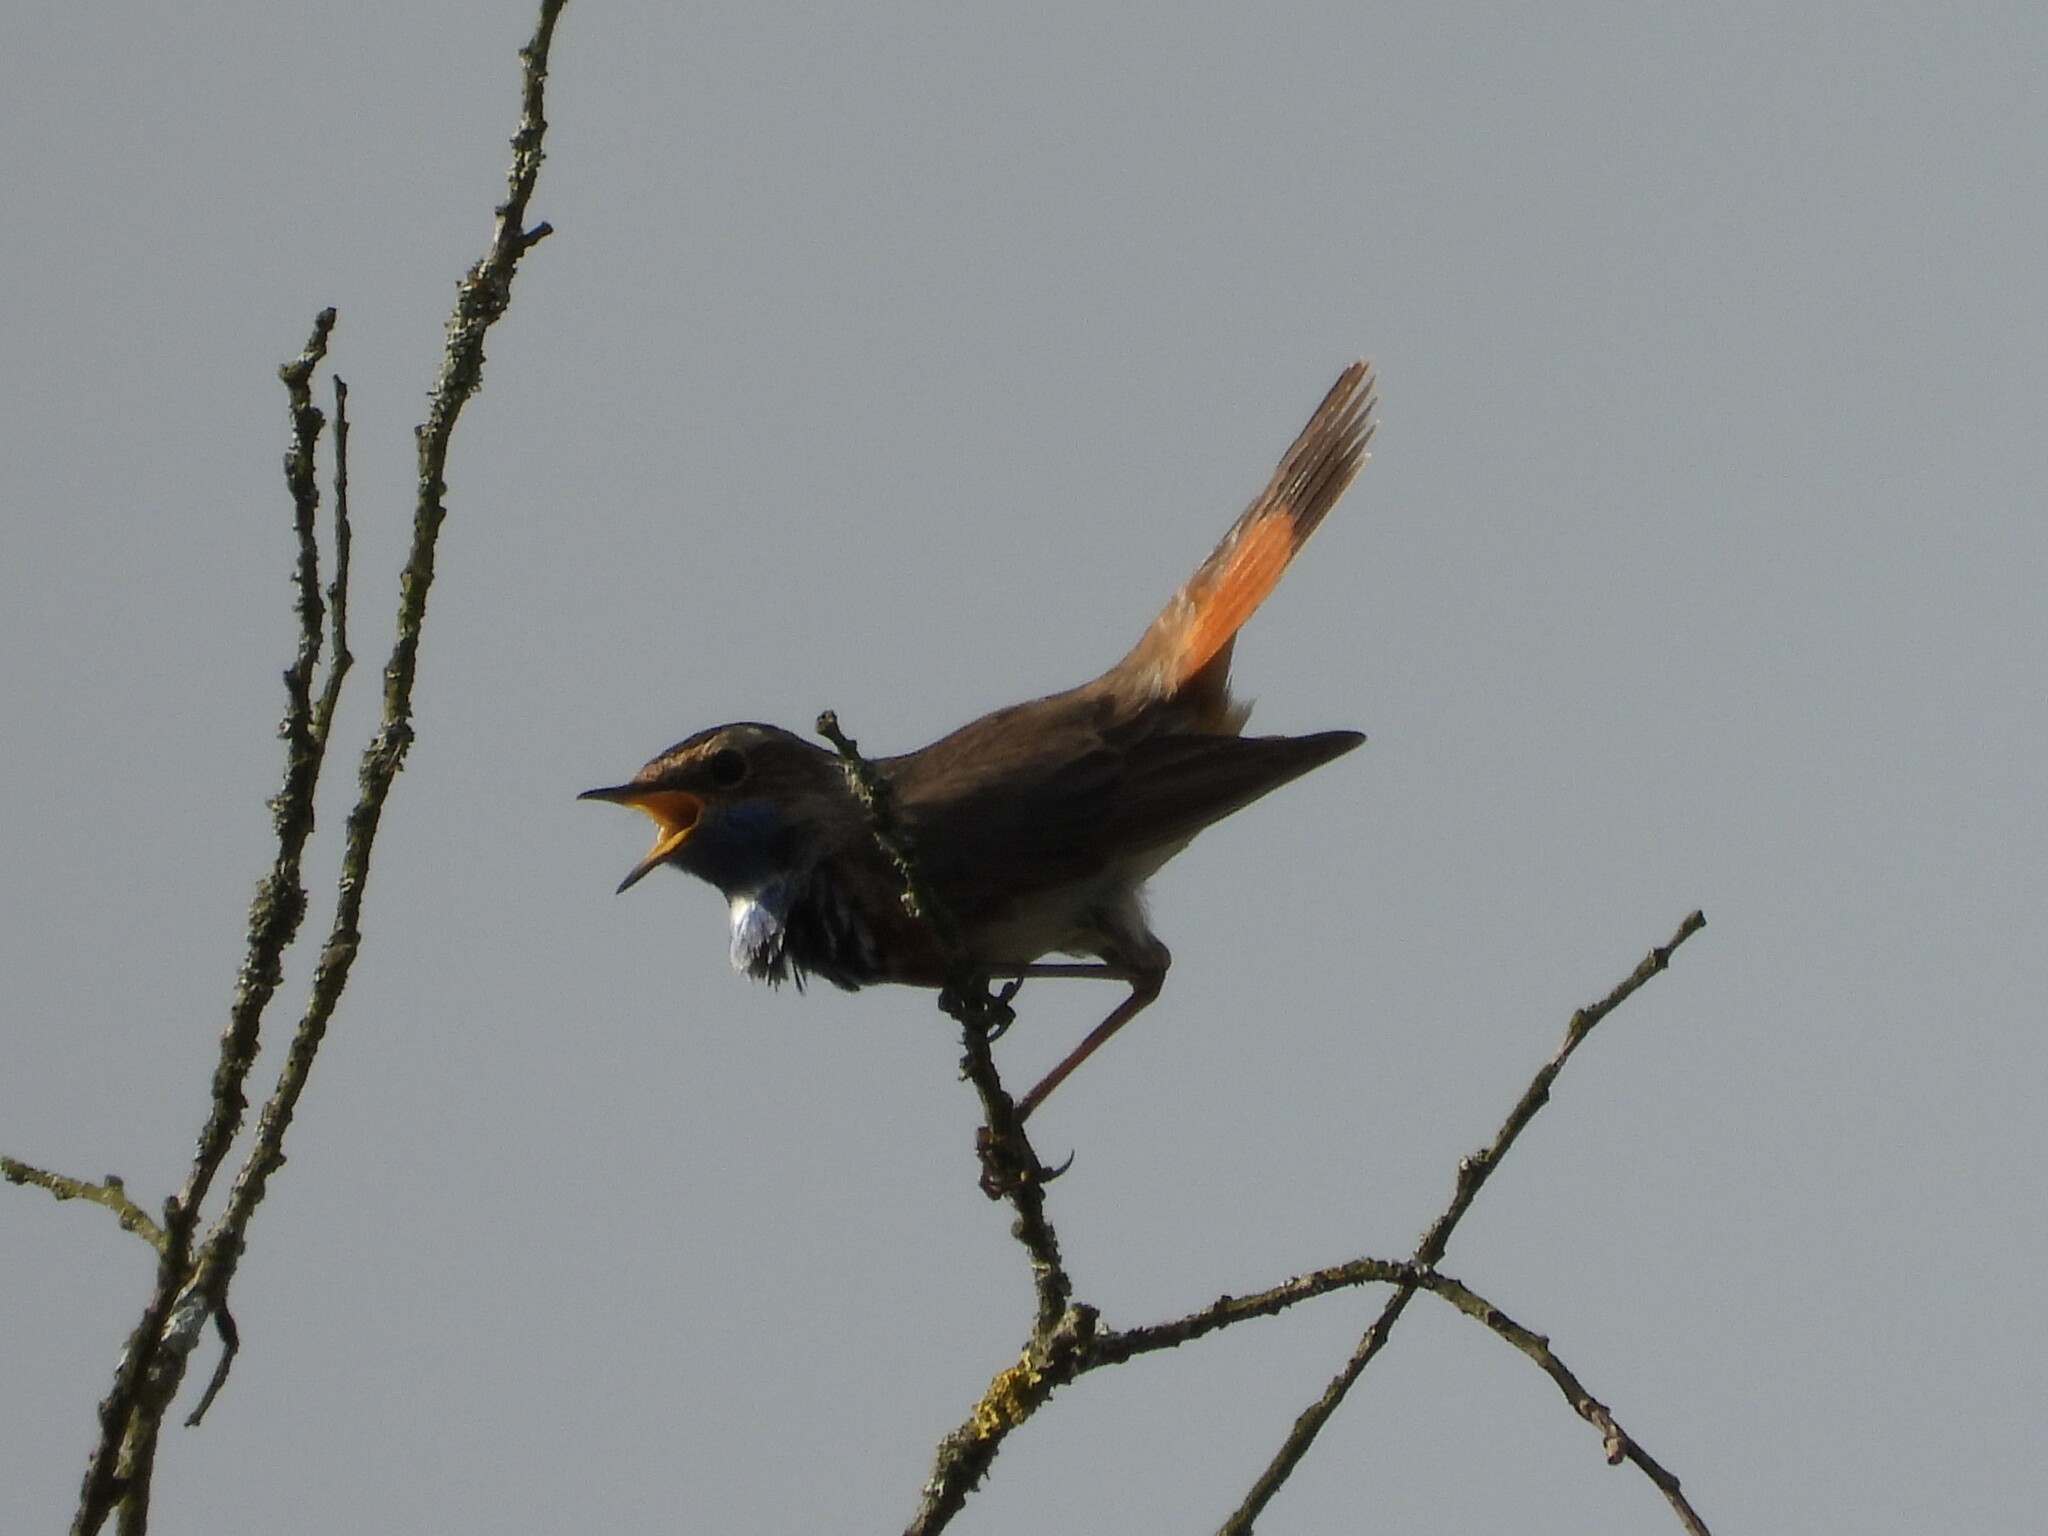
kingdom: Animalia
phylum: Chordata
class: Aves
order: Passeriformes
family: Muscicapidae
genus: Luscinia
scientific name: Luscinia svecica
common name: Bluethroat
